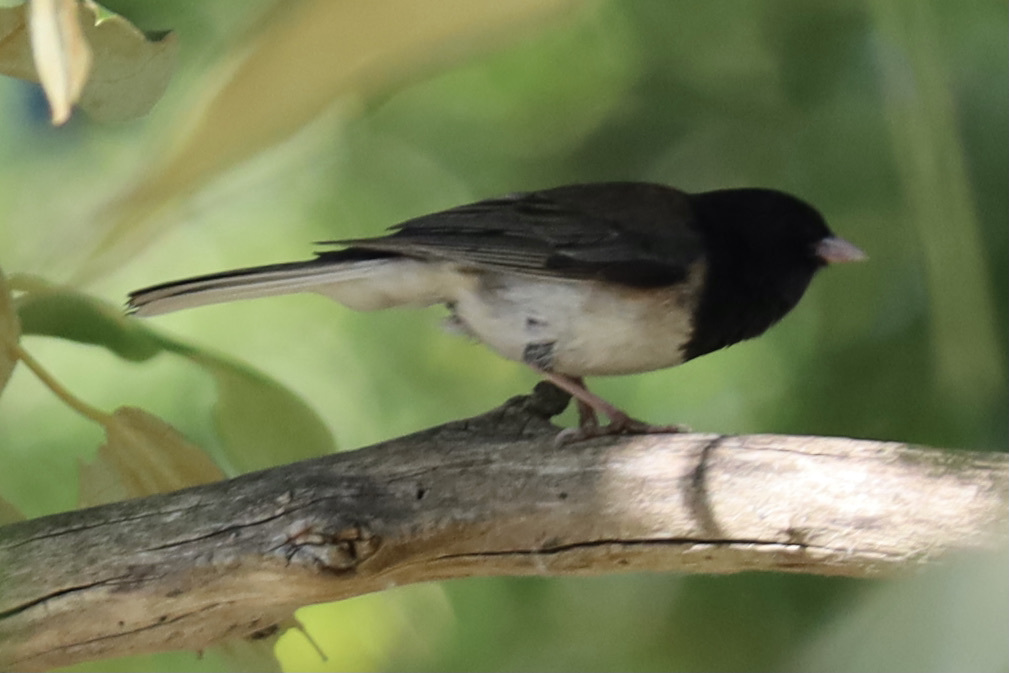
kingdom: Animalia
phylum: Chordata
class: Aves
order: Passeriformes
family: Passerellidae
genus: Junco
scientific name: Junco hyemalis
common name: Dark-eyed junco
